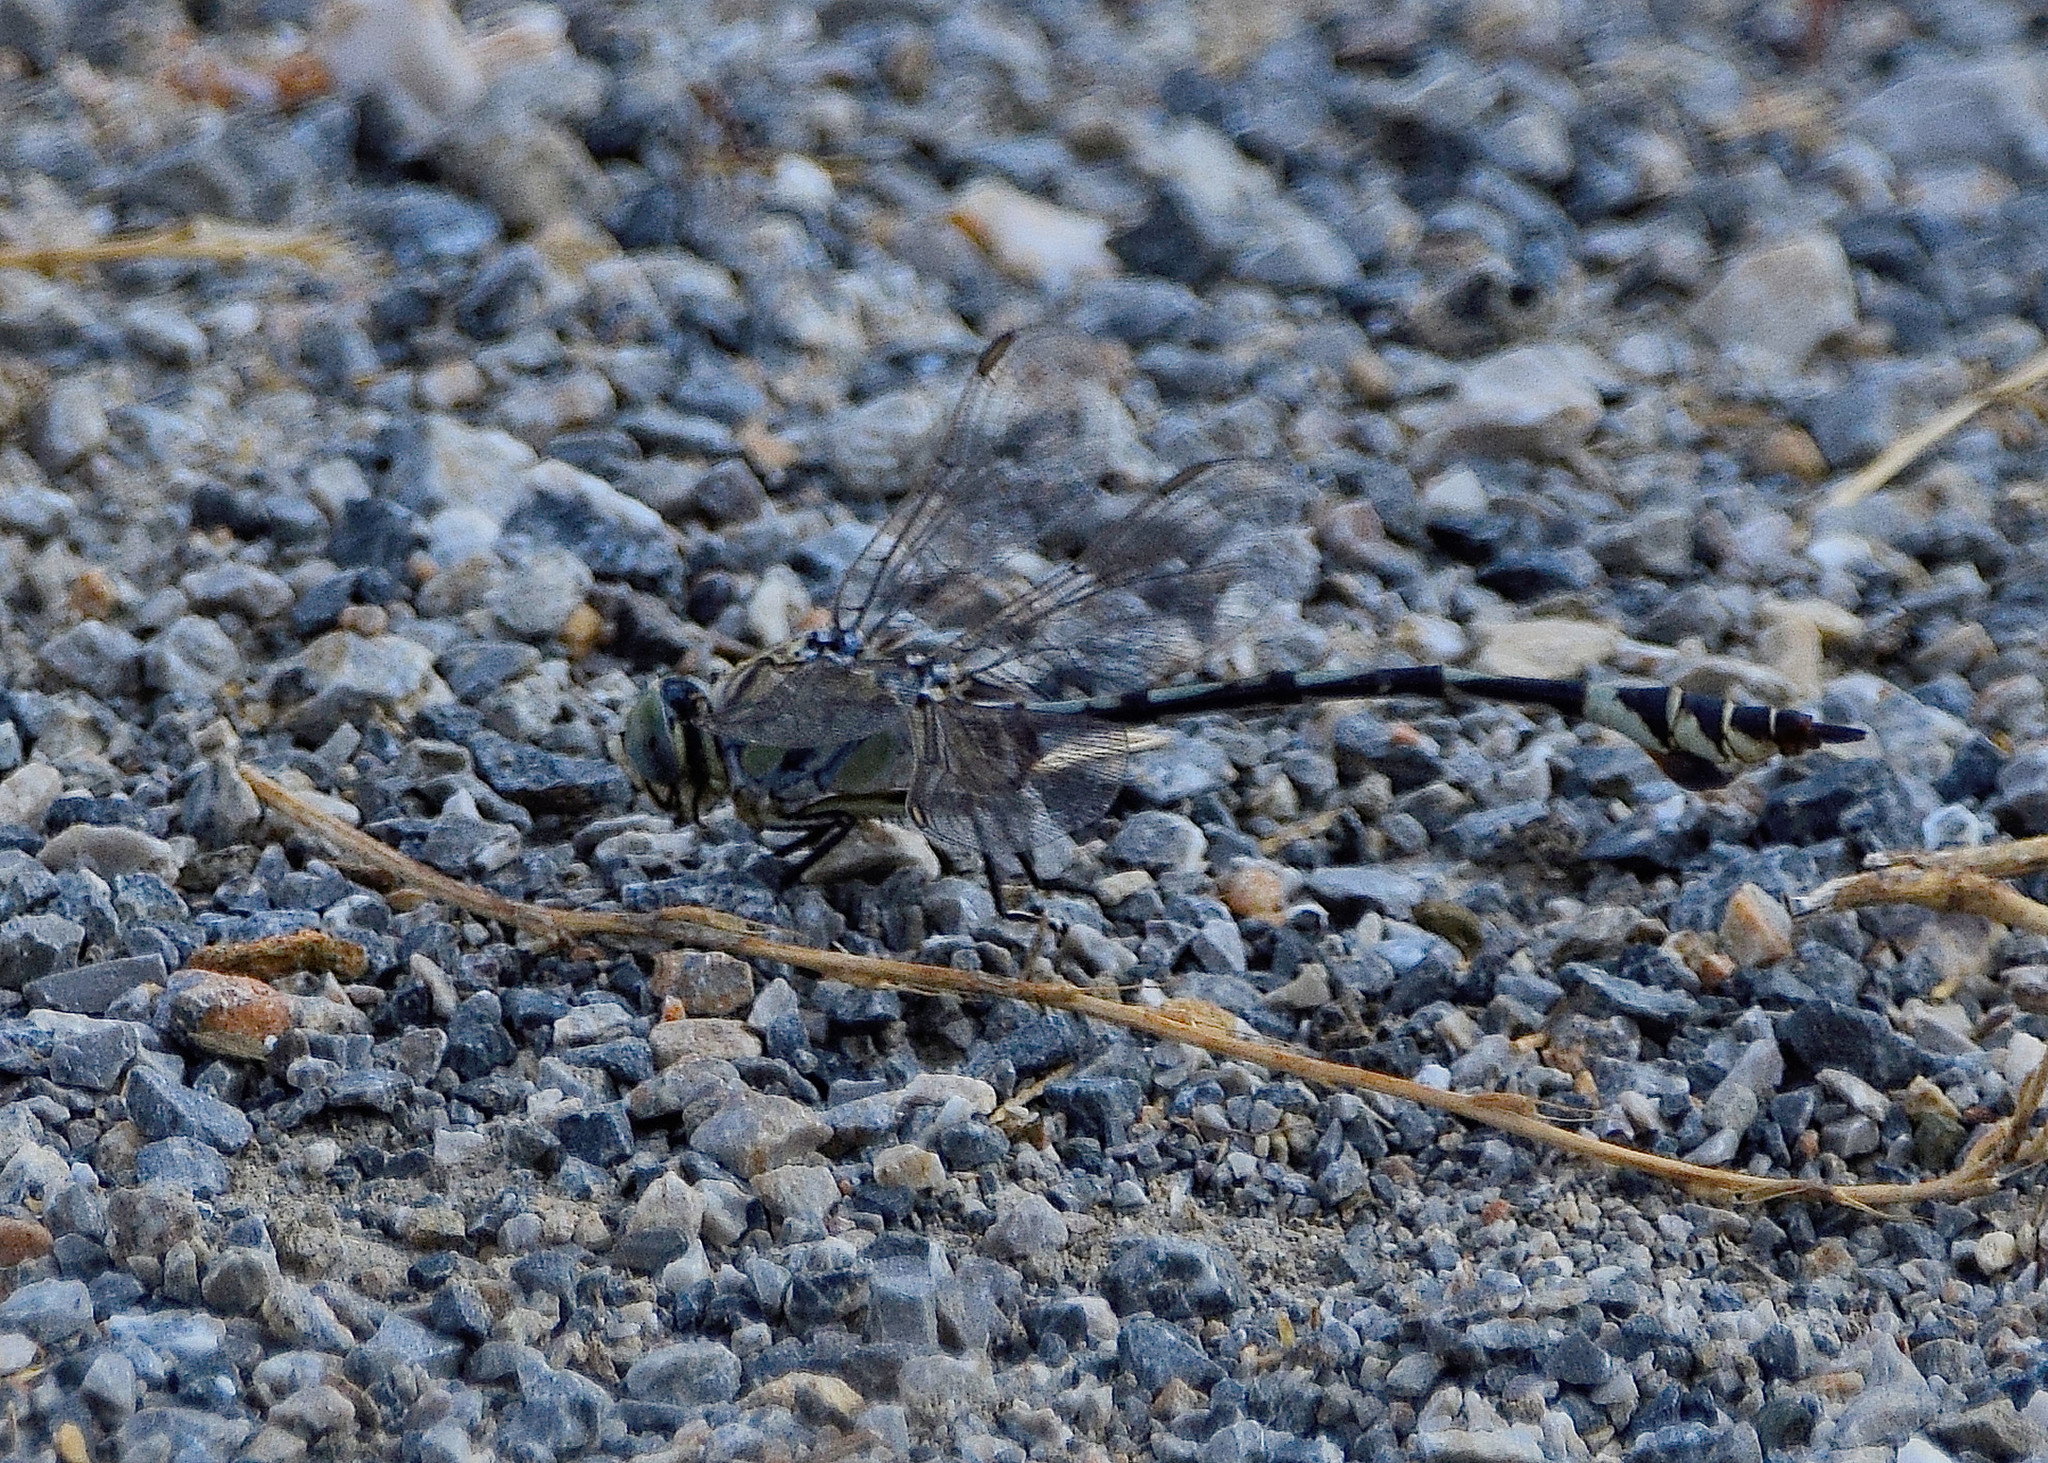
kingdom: Animalia
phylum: Arthropoda
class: Insecta
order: Odonata
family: Gomphidae
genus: Lindenia
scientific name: Lindenia tetraphylla
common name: Bladetail
